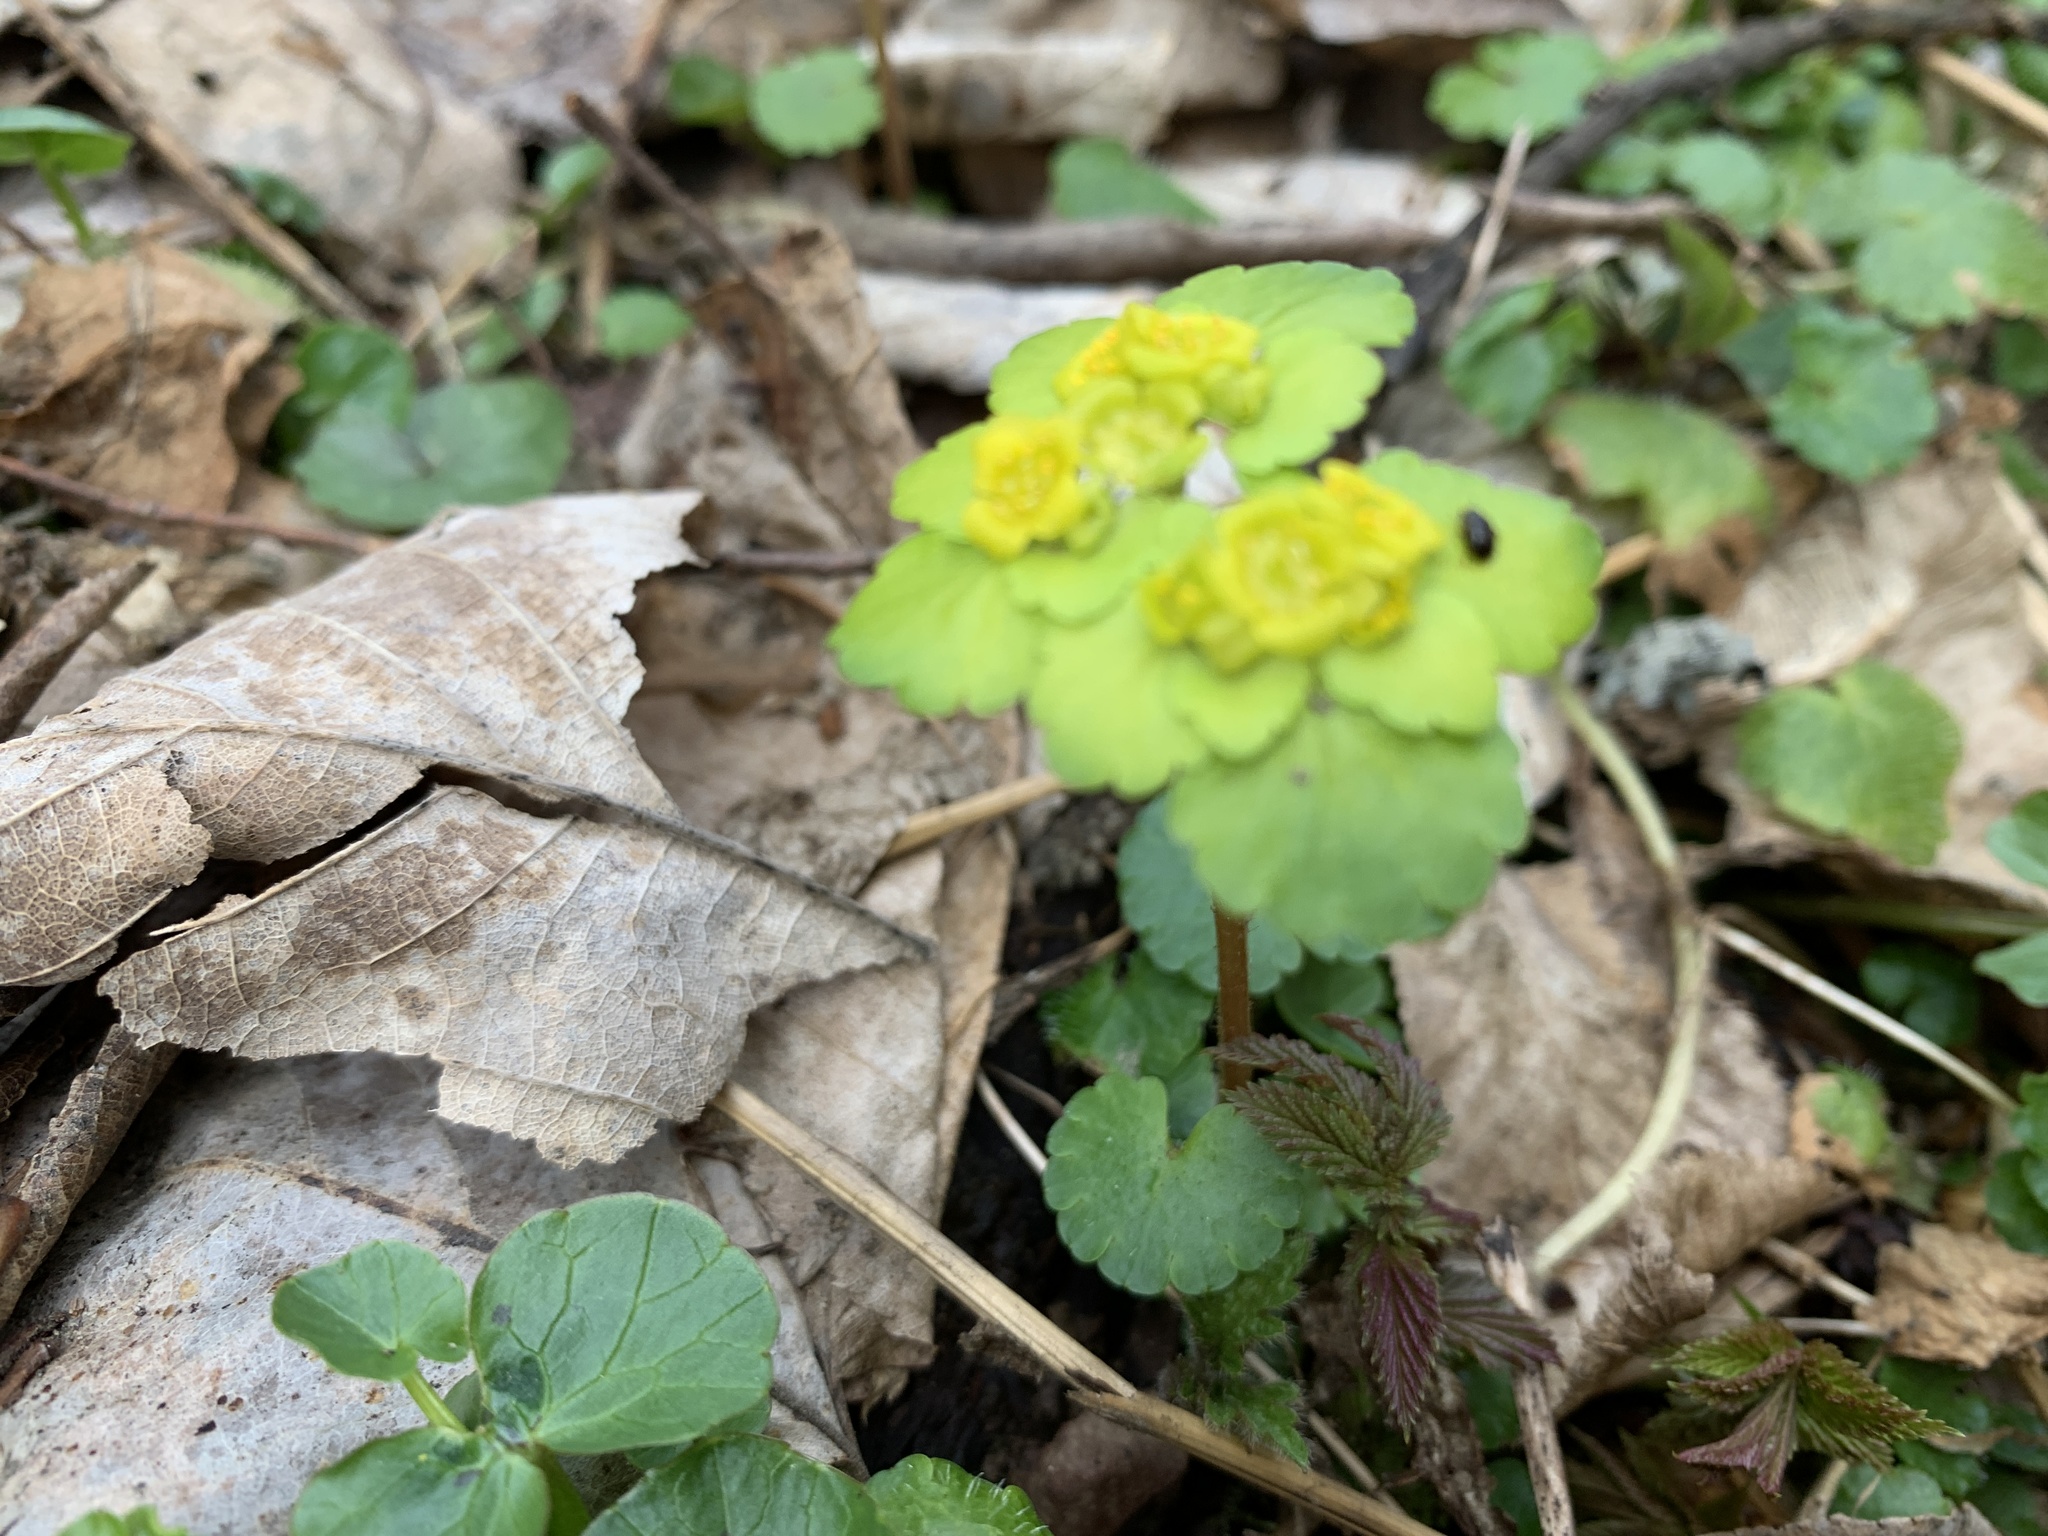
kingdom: Plantae
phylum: Tracheophyta
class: Magnoliopsida
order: Saxifragales
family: Saxifragaceae
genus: Chrysosplenium
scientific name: Chrysosplenium alternifolium
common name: Alternate-leaved golden-saxifrage
